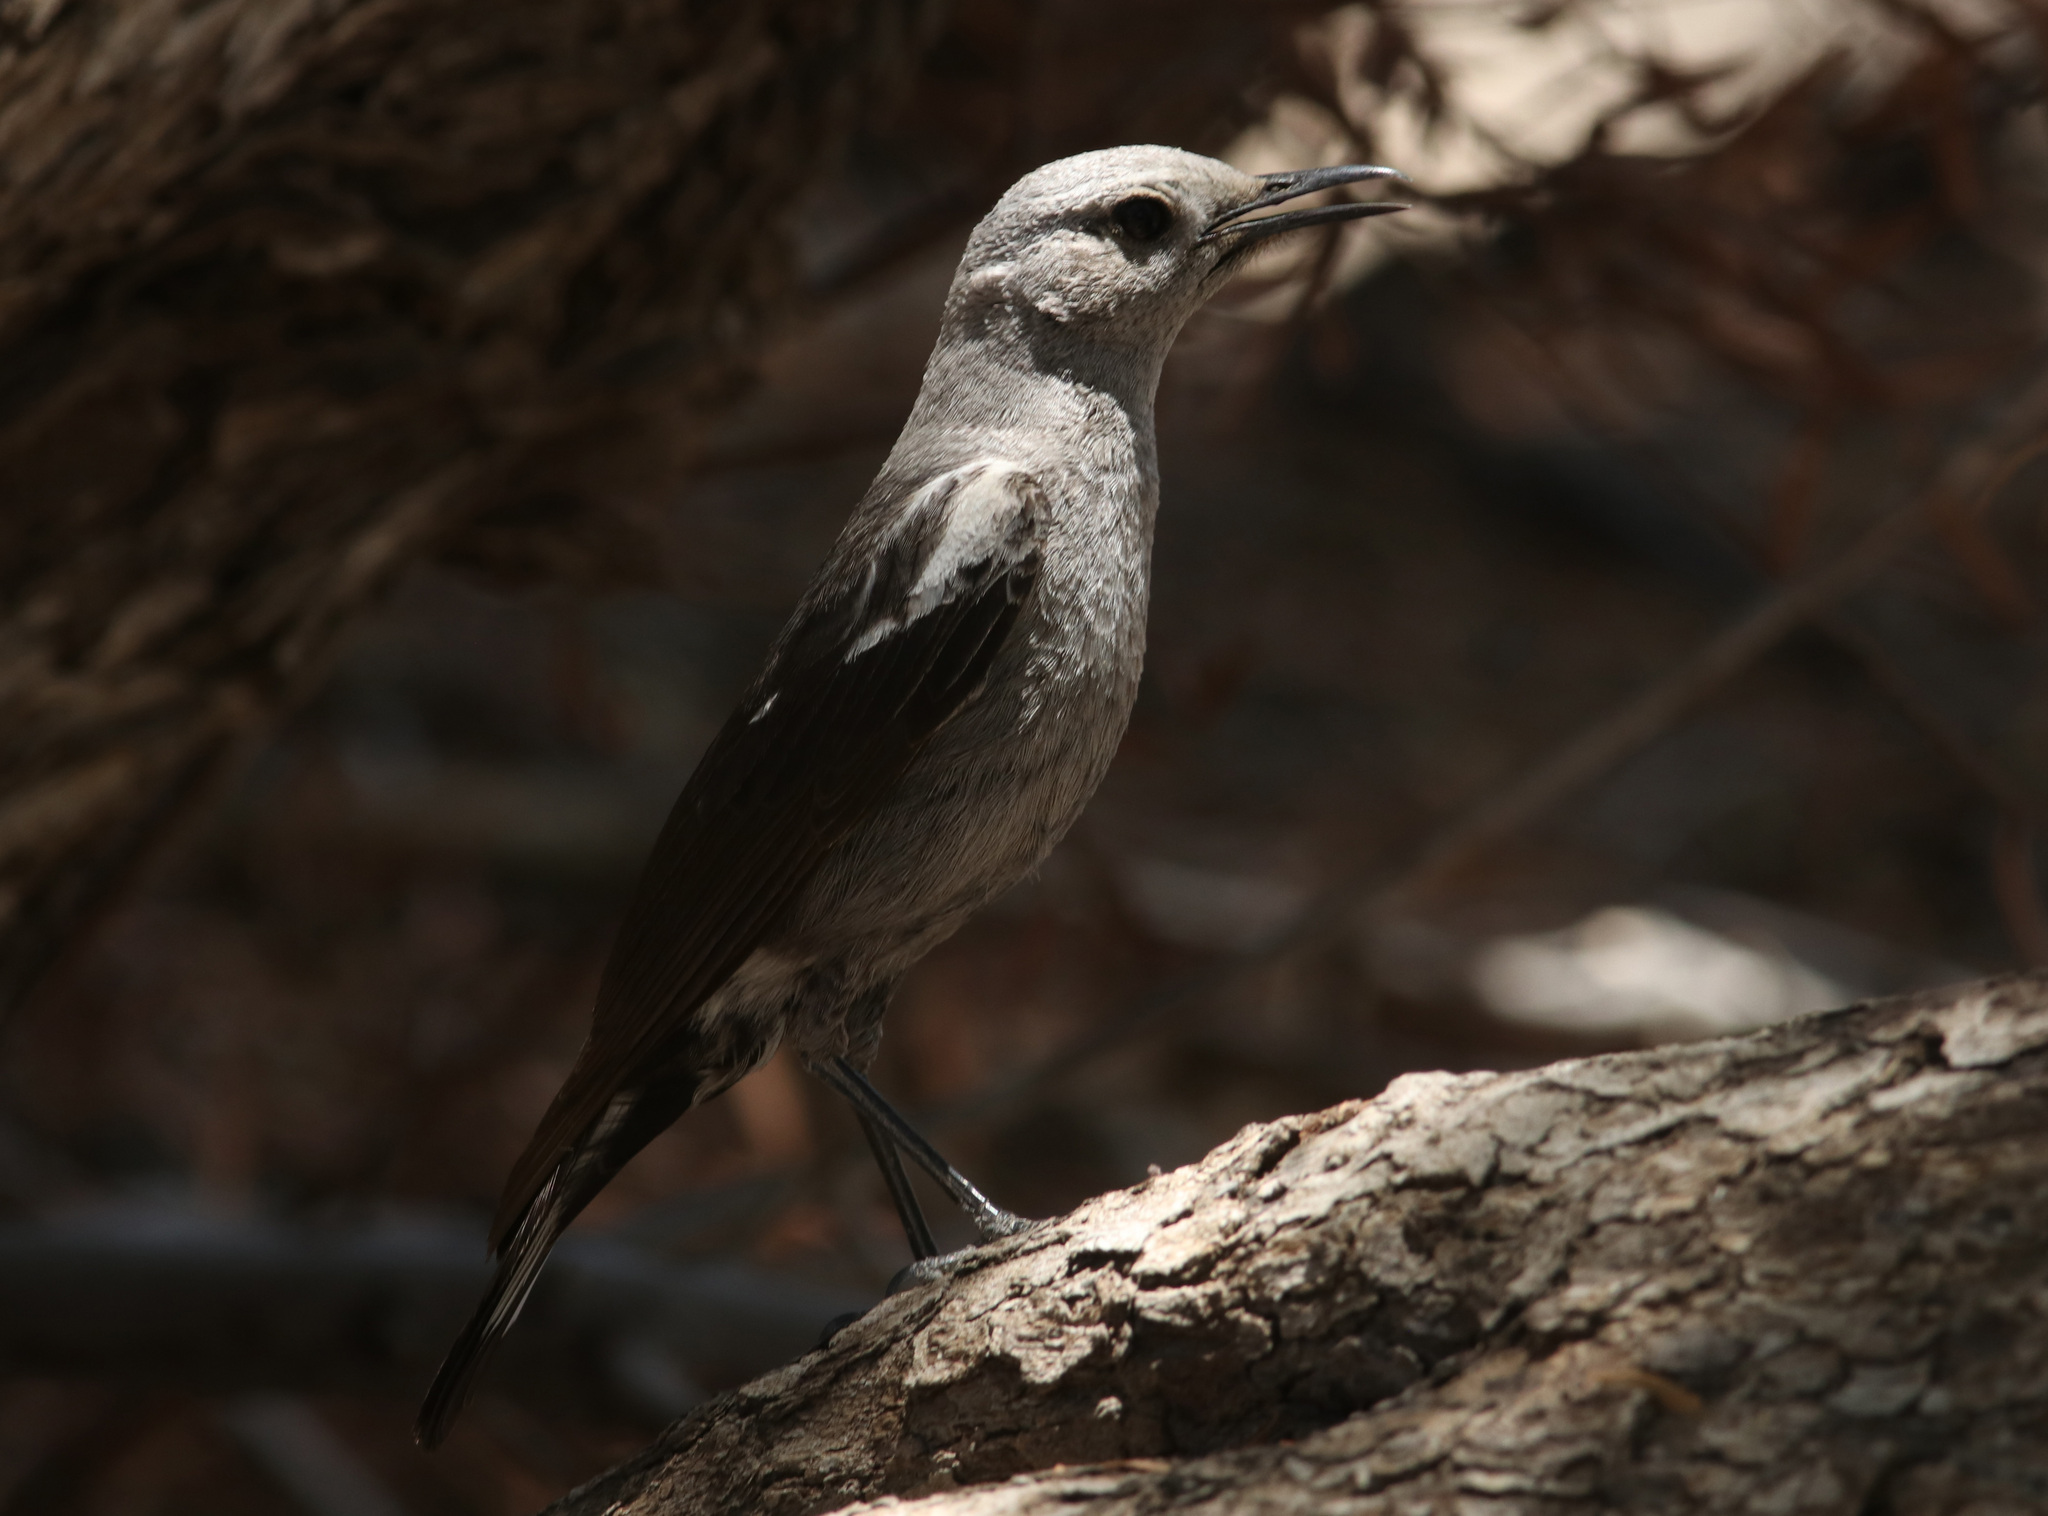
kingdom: Animalia
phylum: Chordata
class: Aves
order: Passeriformes
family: Muscicapidae
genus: Oenanthe
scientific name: Oenanthe monticola
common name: Mountain wheatear
